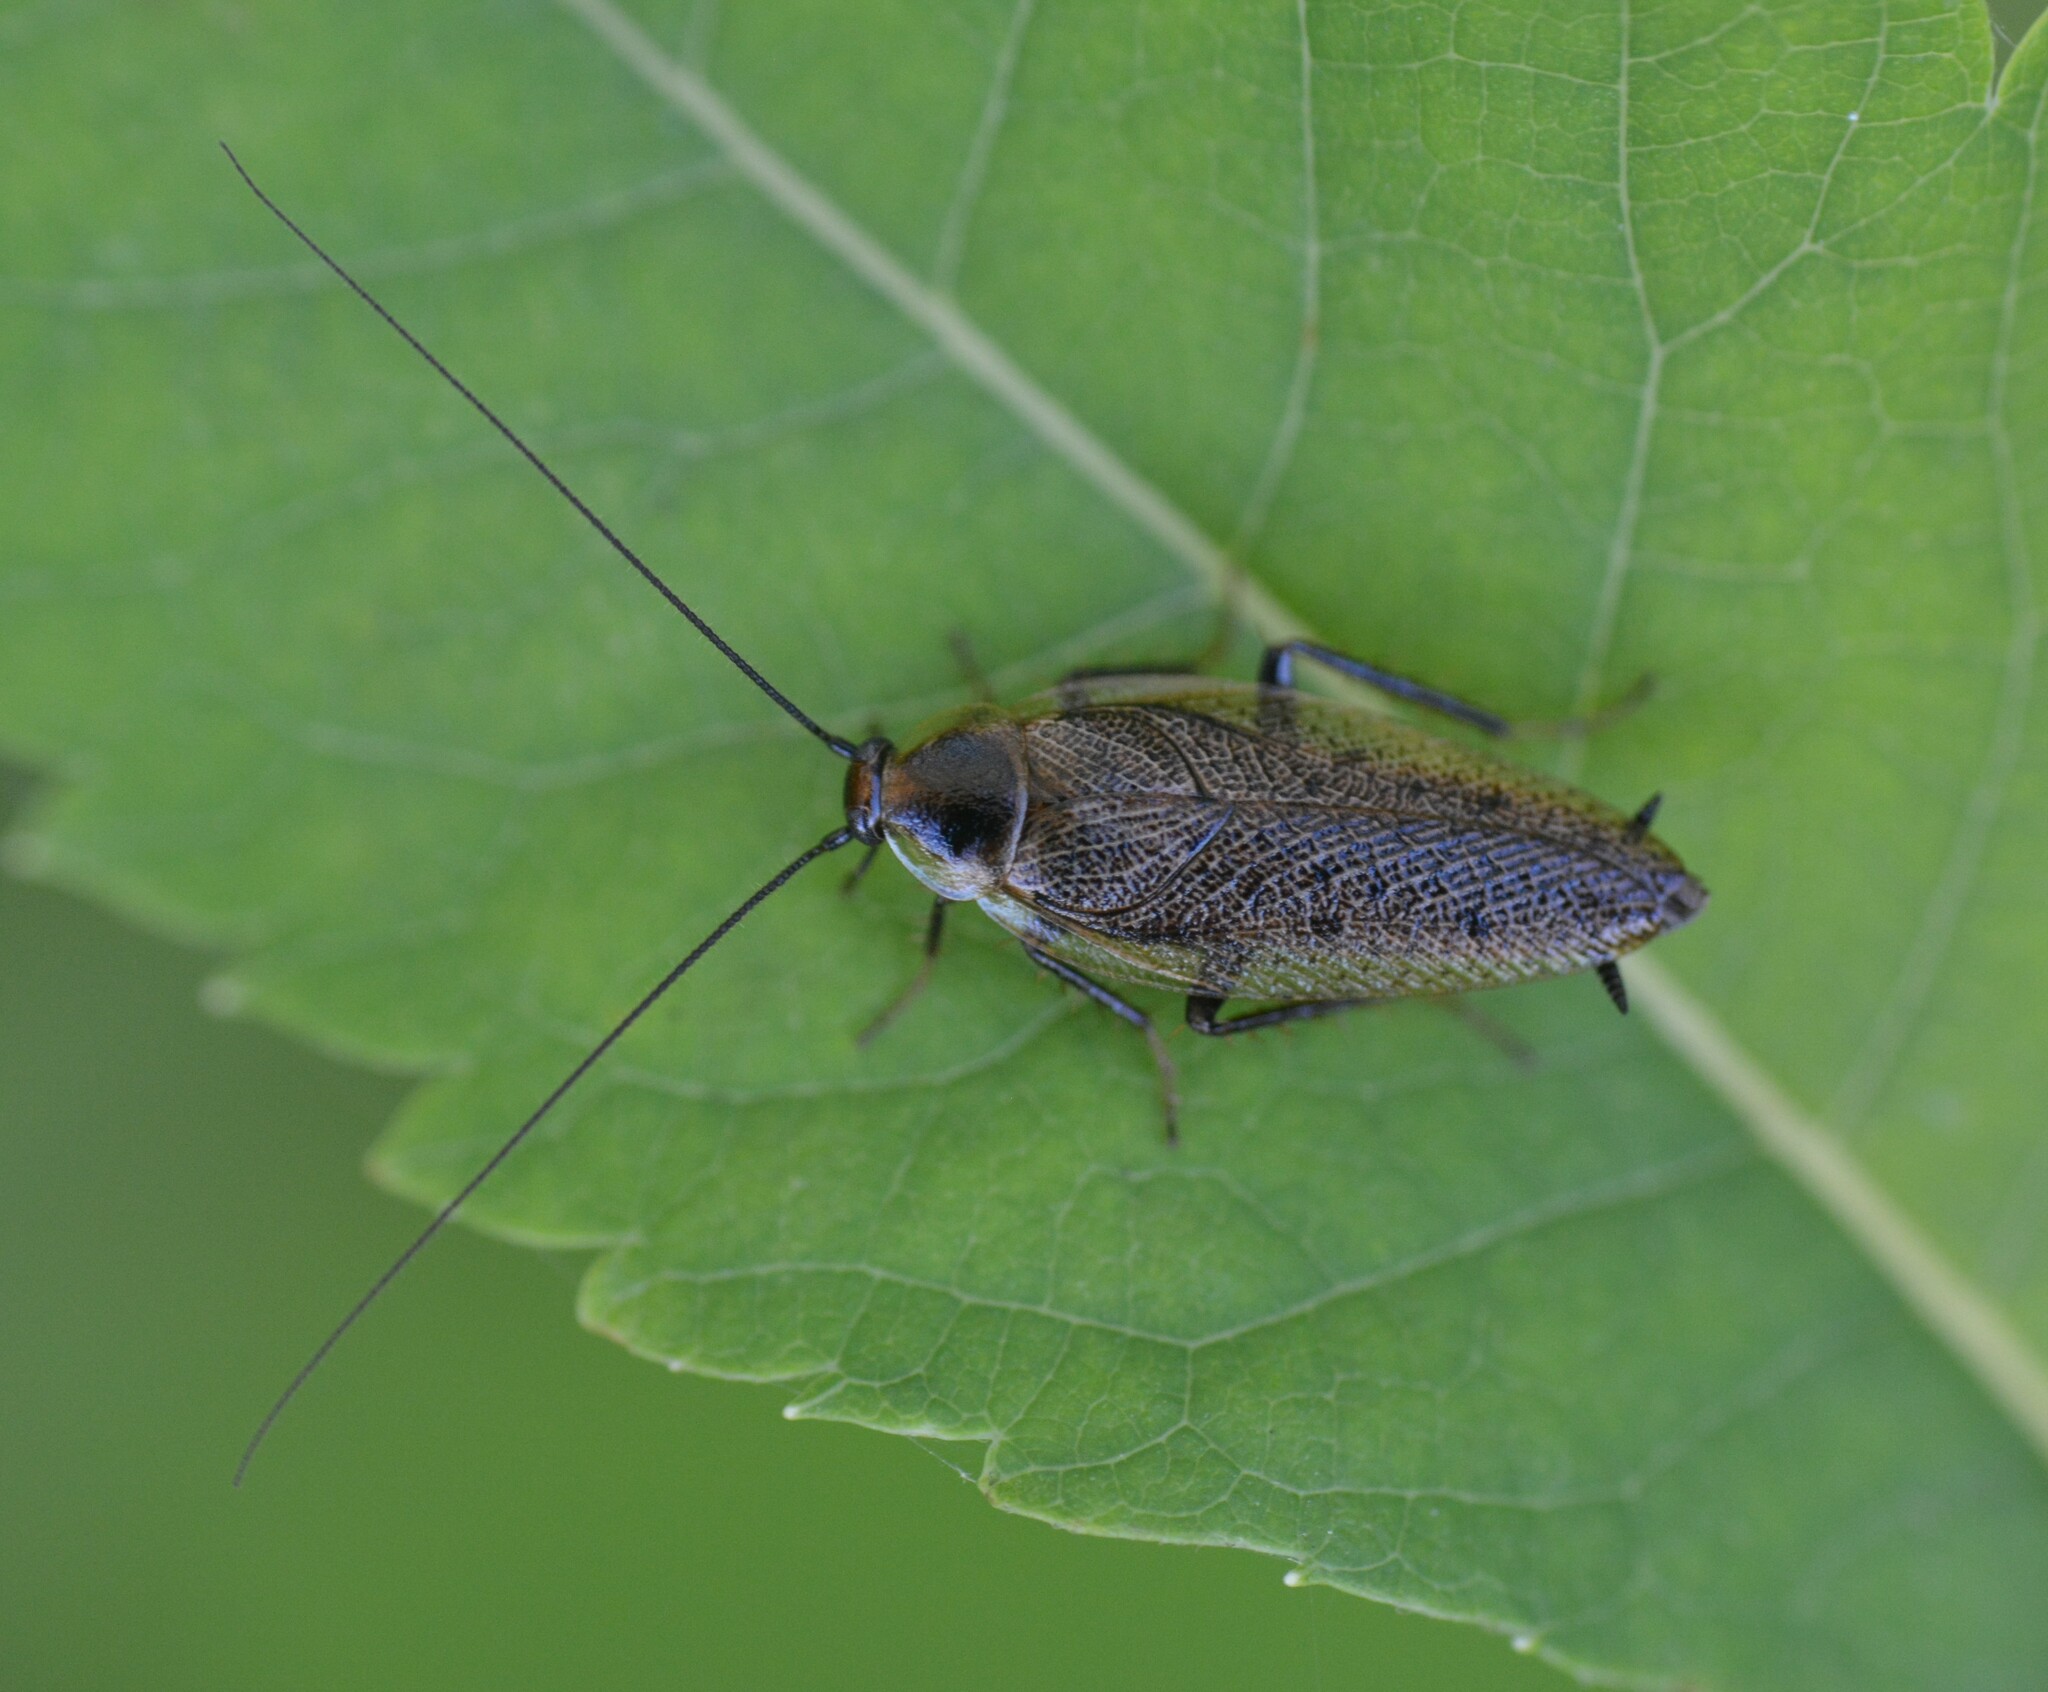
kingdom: Animalia
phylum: Arthropoda
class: Insecta
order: Blattodea
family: Ectobiidae
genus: Ectobius
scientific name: Ectobius lapponicus
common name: Dusky cockroach
